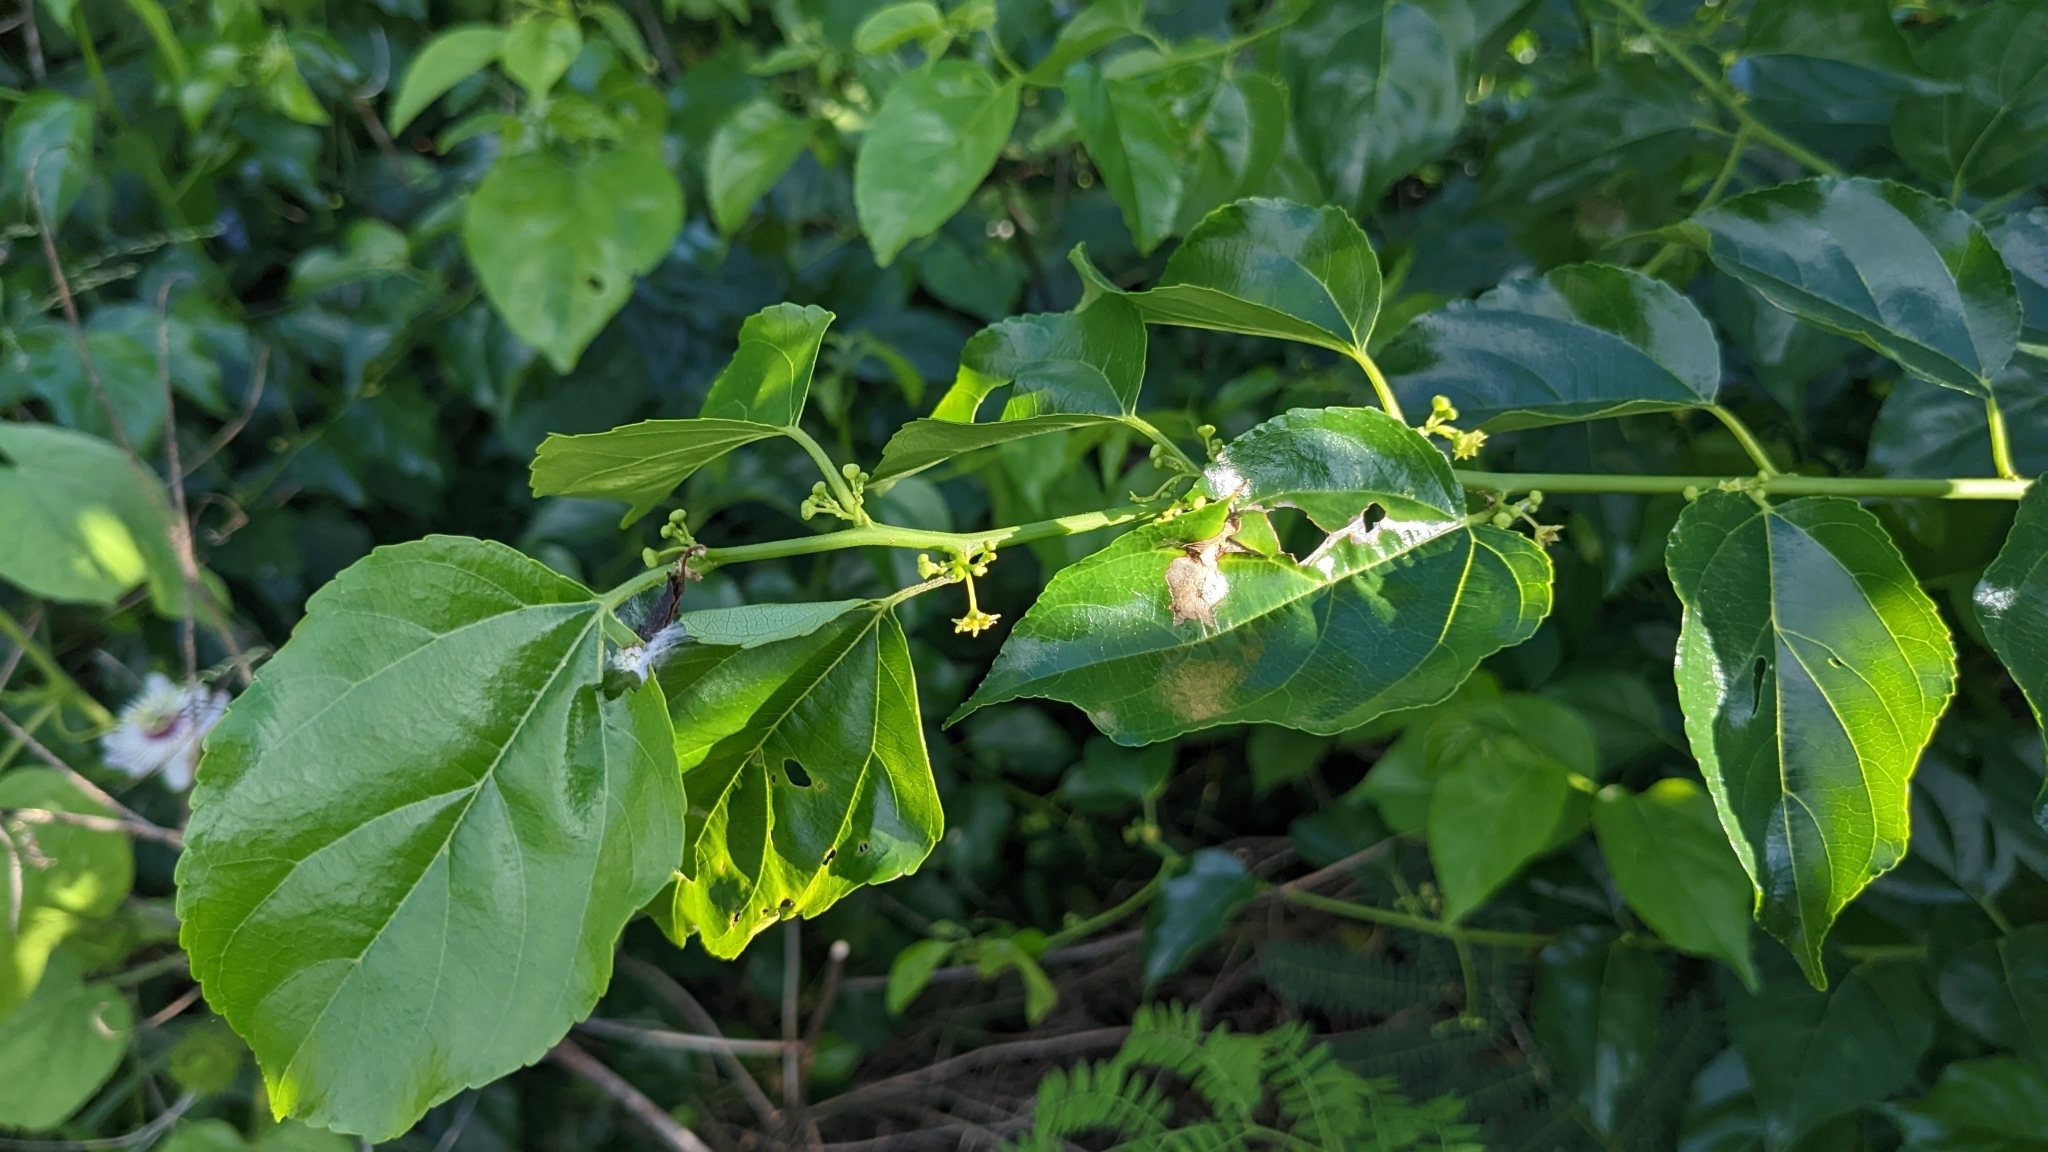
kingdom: Plantae
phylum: Tracheophyta
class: Magnoliopsida
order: Rosales
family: Rhamnaceae
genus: Colubrina
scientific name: Colubrina asiatica
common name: Asian nakedwood
